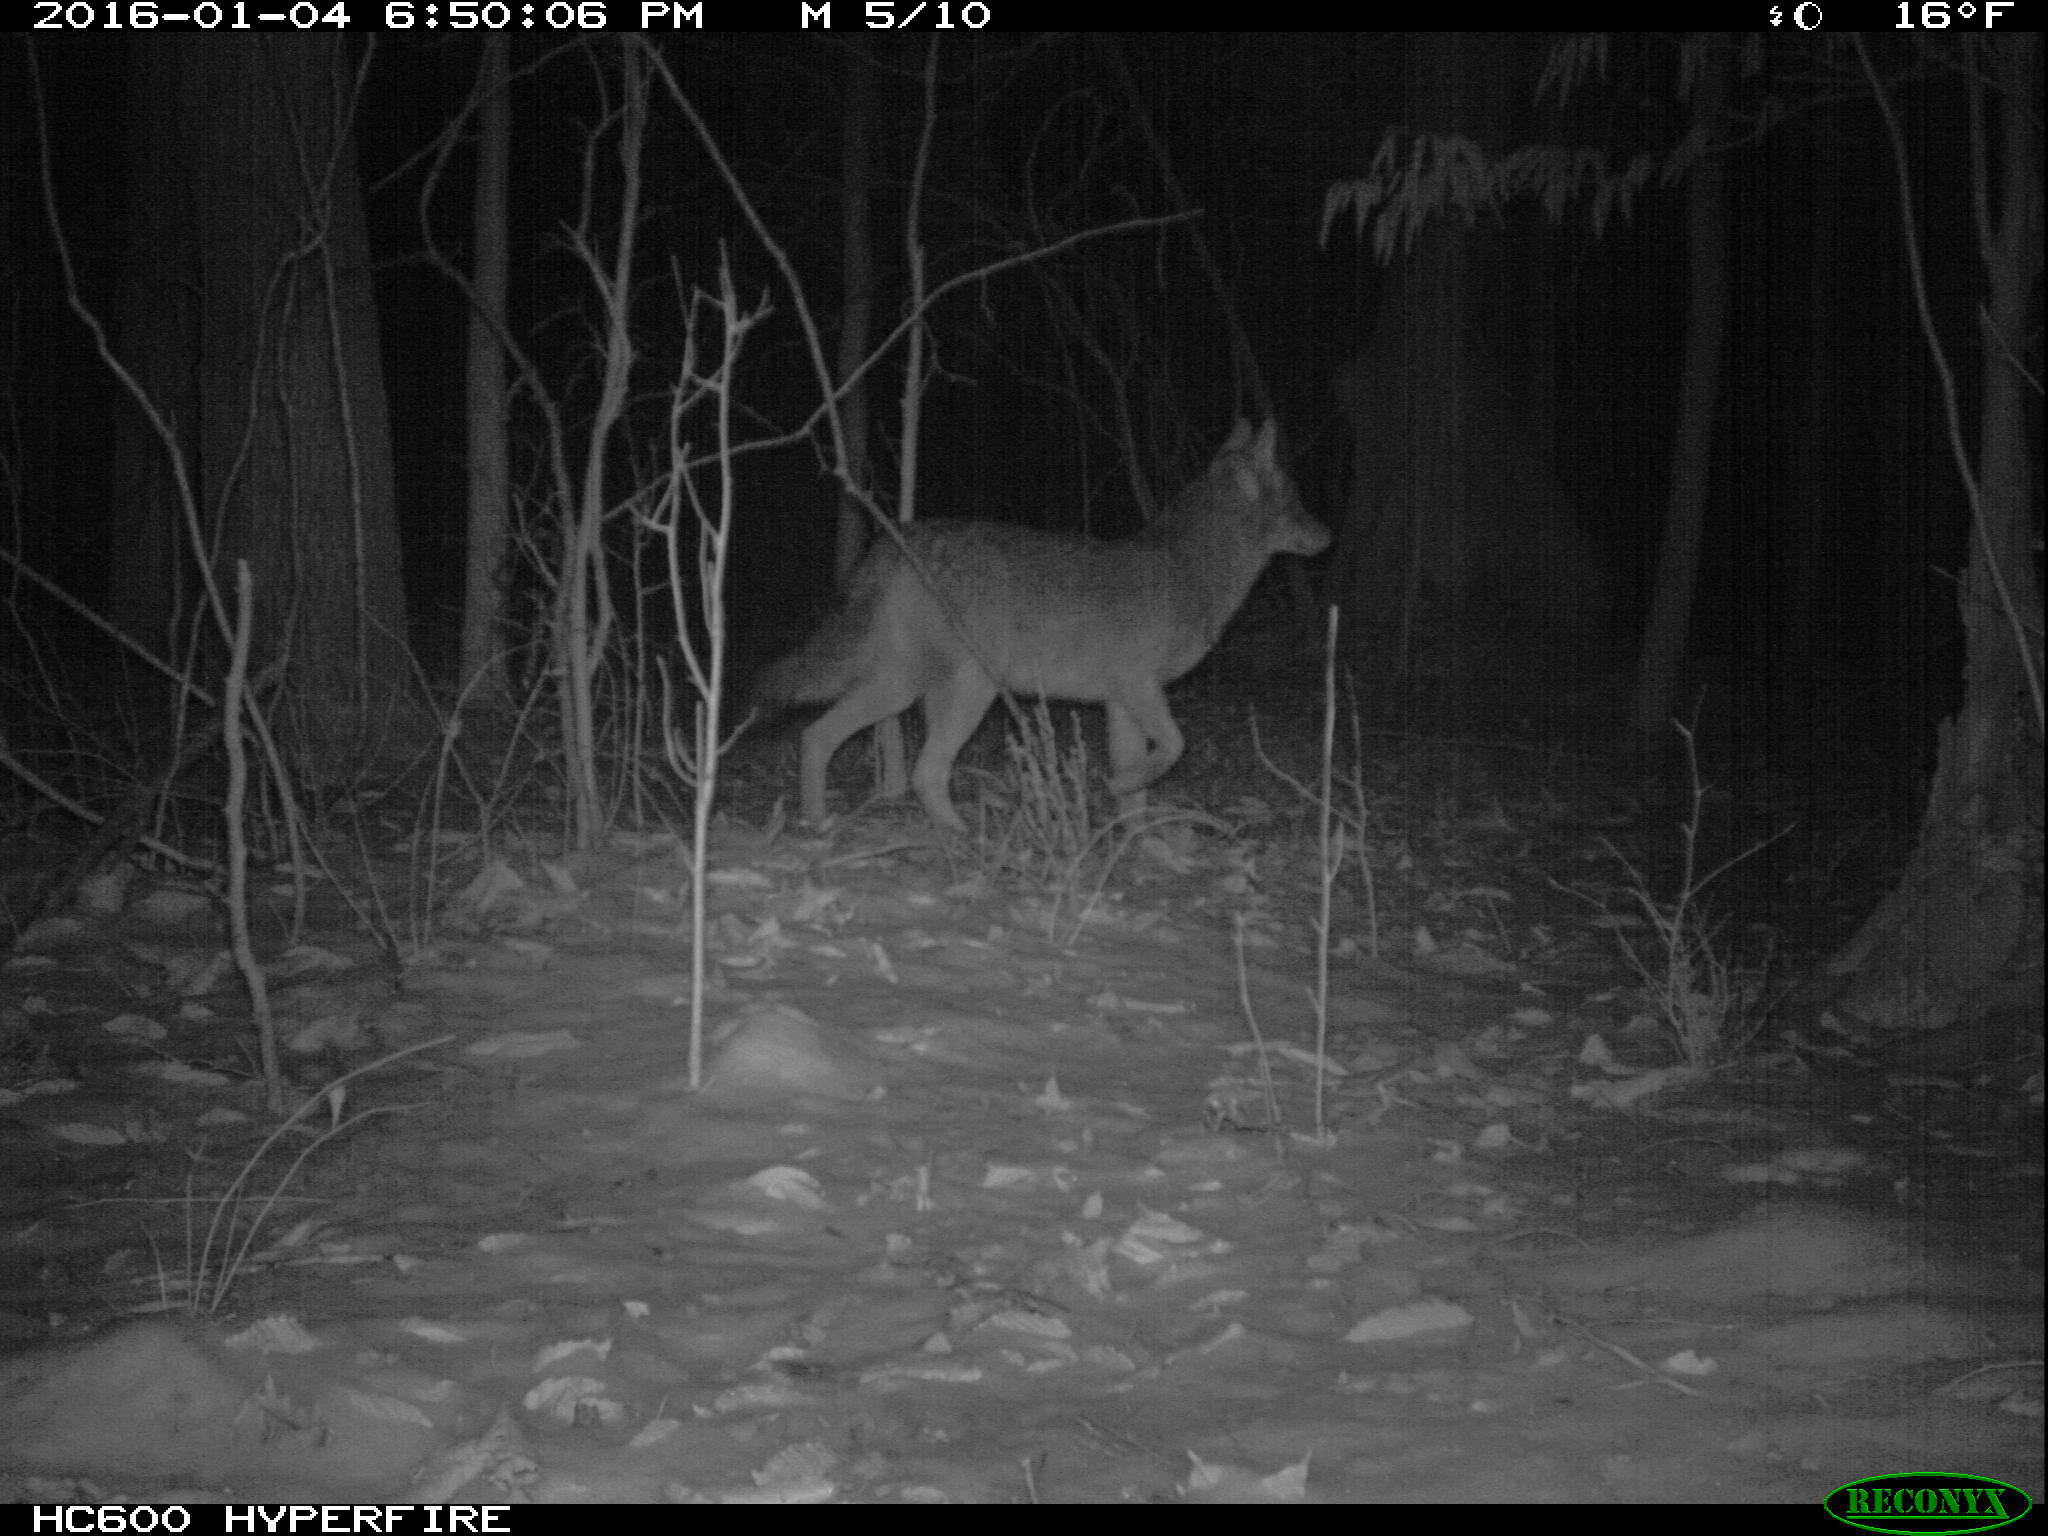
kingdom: Animalia
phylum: Chordata
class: Mammalia
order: Carnivora
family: Canidae
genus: Canis
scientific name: Canis latrans
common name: Coyote
